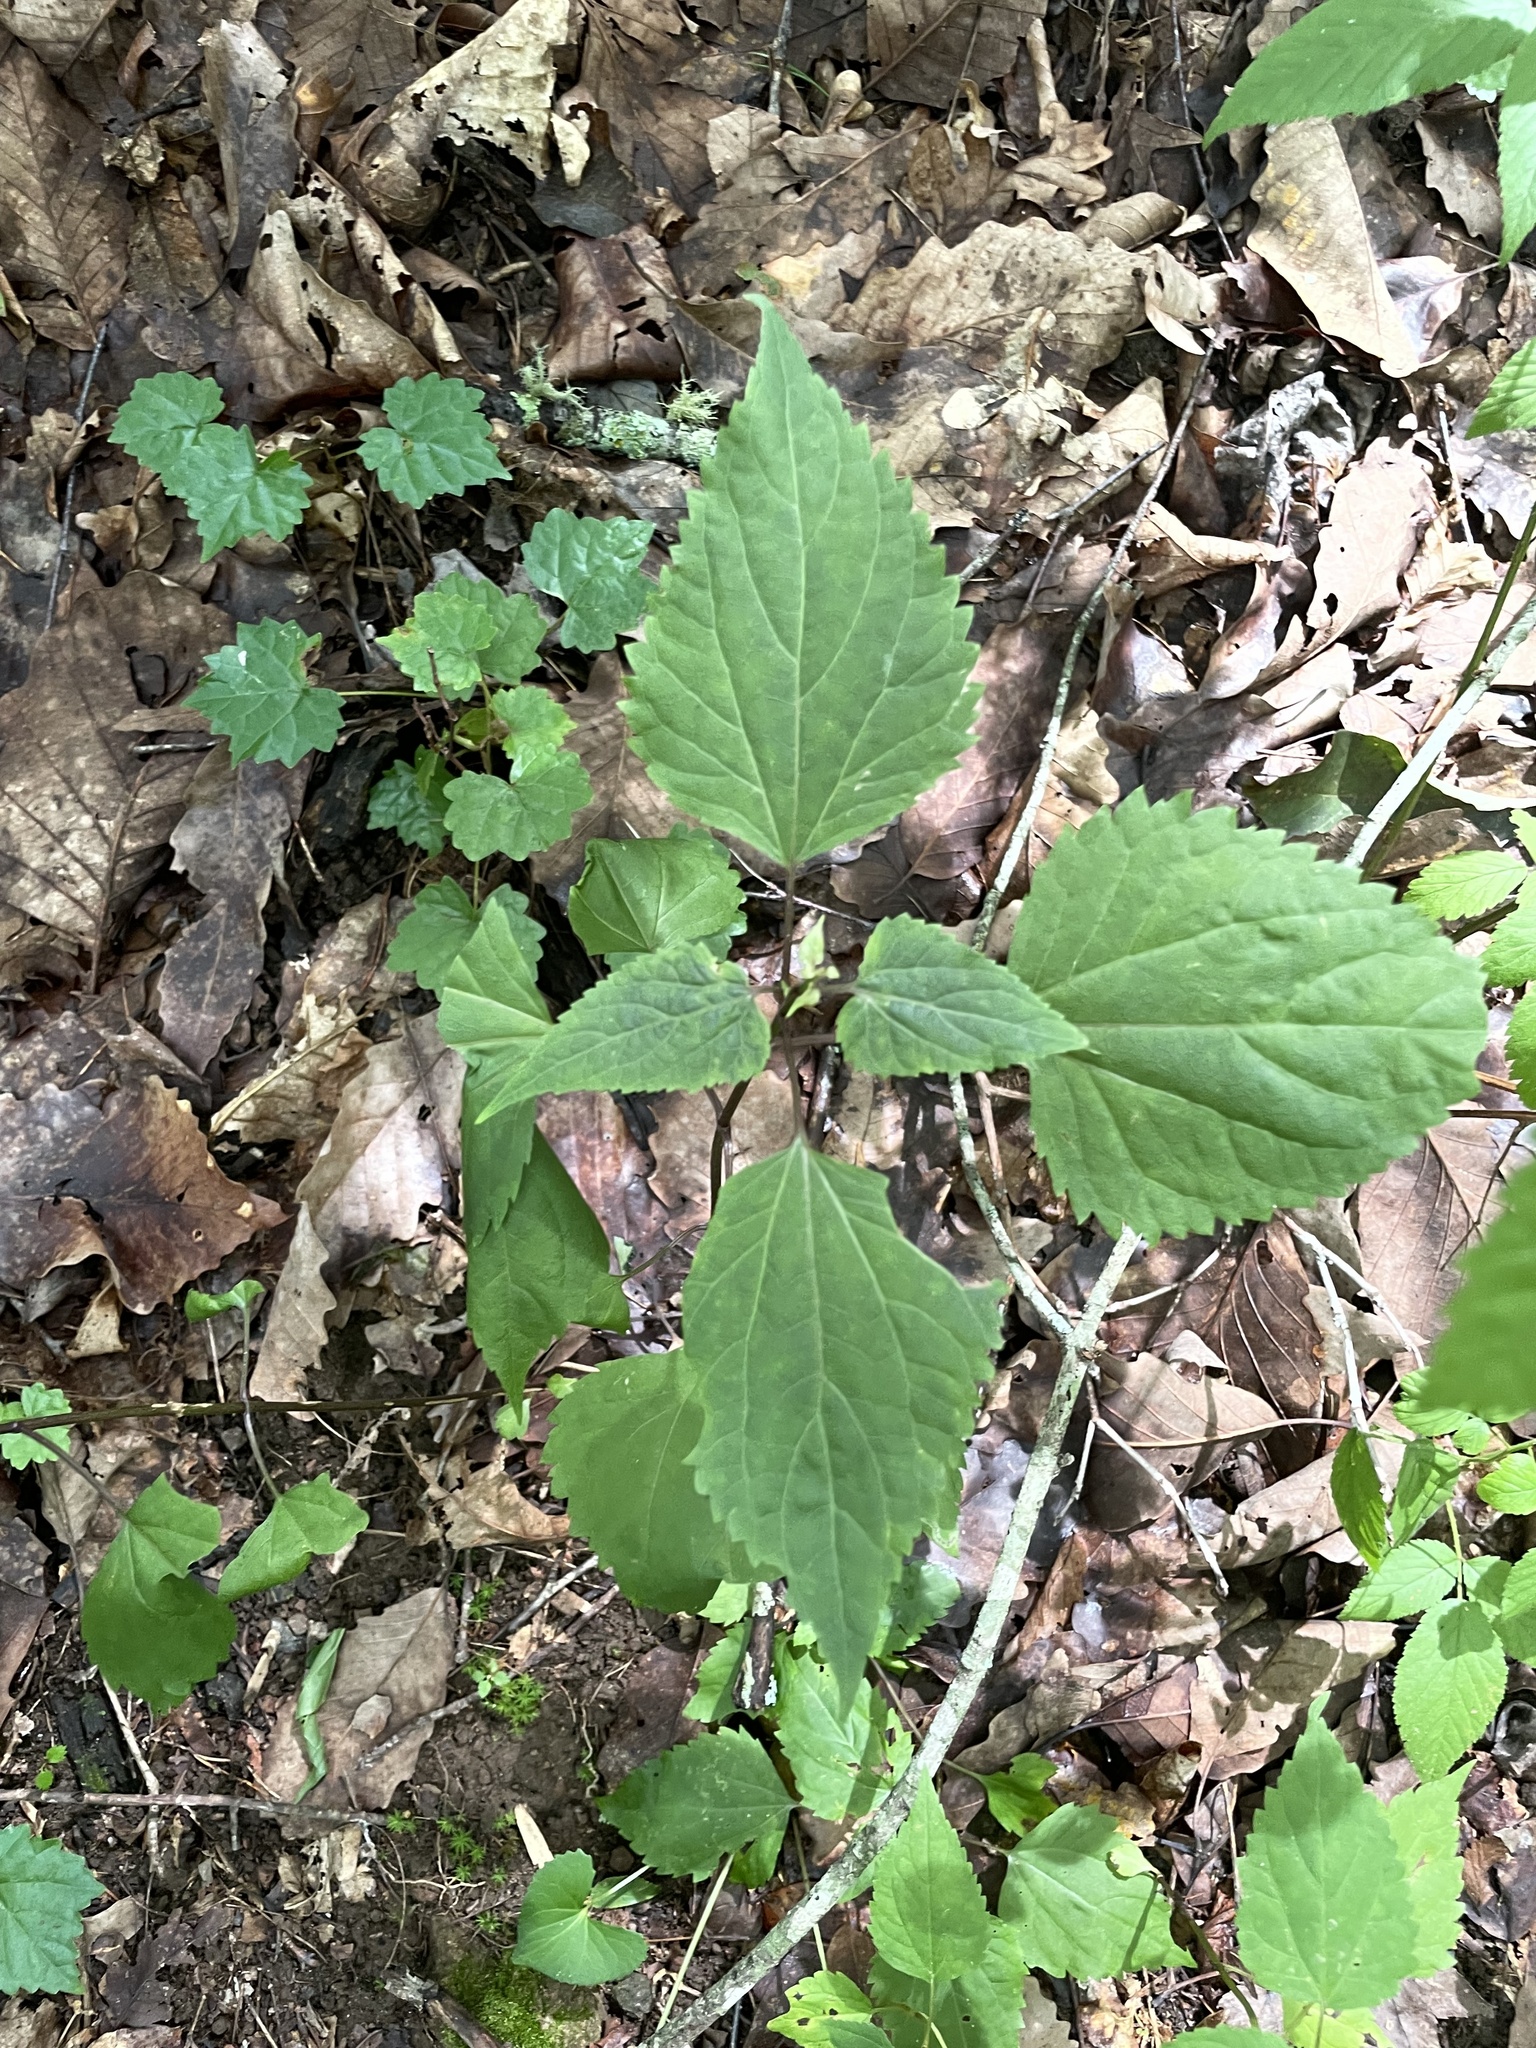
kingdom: Plantae
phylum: Tracheophyta
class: Magnoliopsida
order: Asterales
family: Asteraceae
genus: Ageratina
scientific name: Ageratina altissima
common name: White snakeroot
